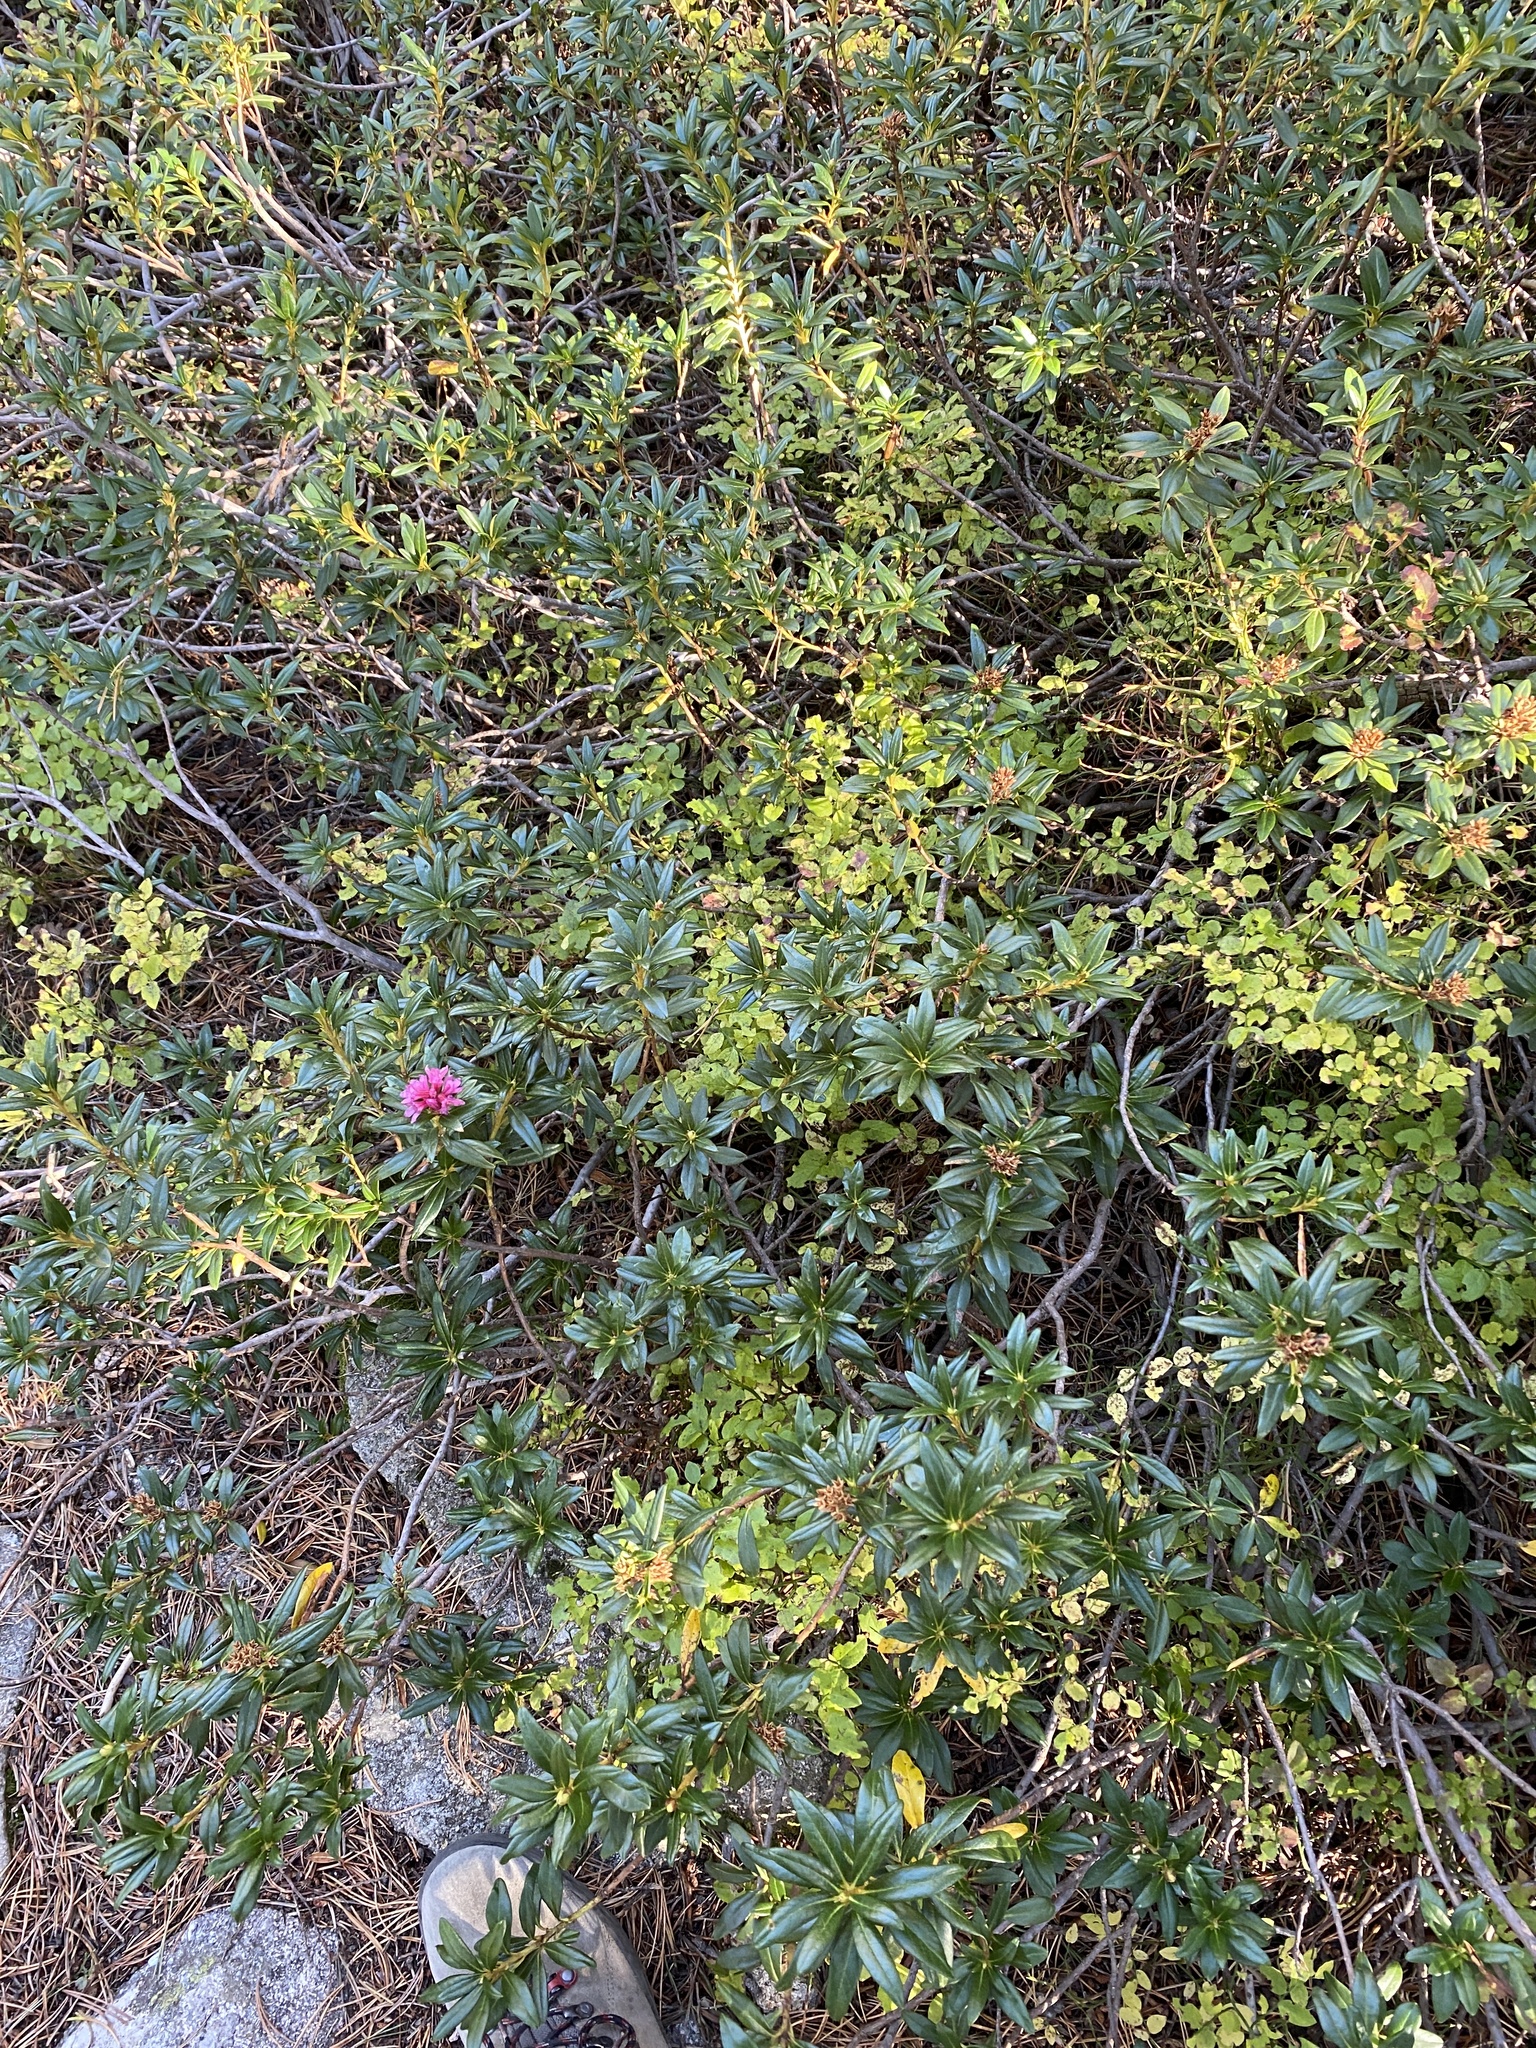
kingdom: Plantae
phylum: Tracheophyta
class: Magnoliopsida
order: Ericales
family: Ericaceae
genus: Rhododendron
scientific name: Rhododendron ferrugineum
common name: Alpenrose
